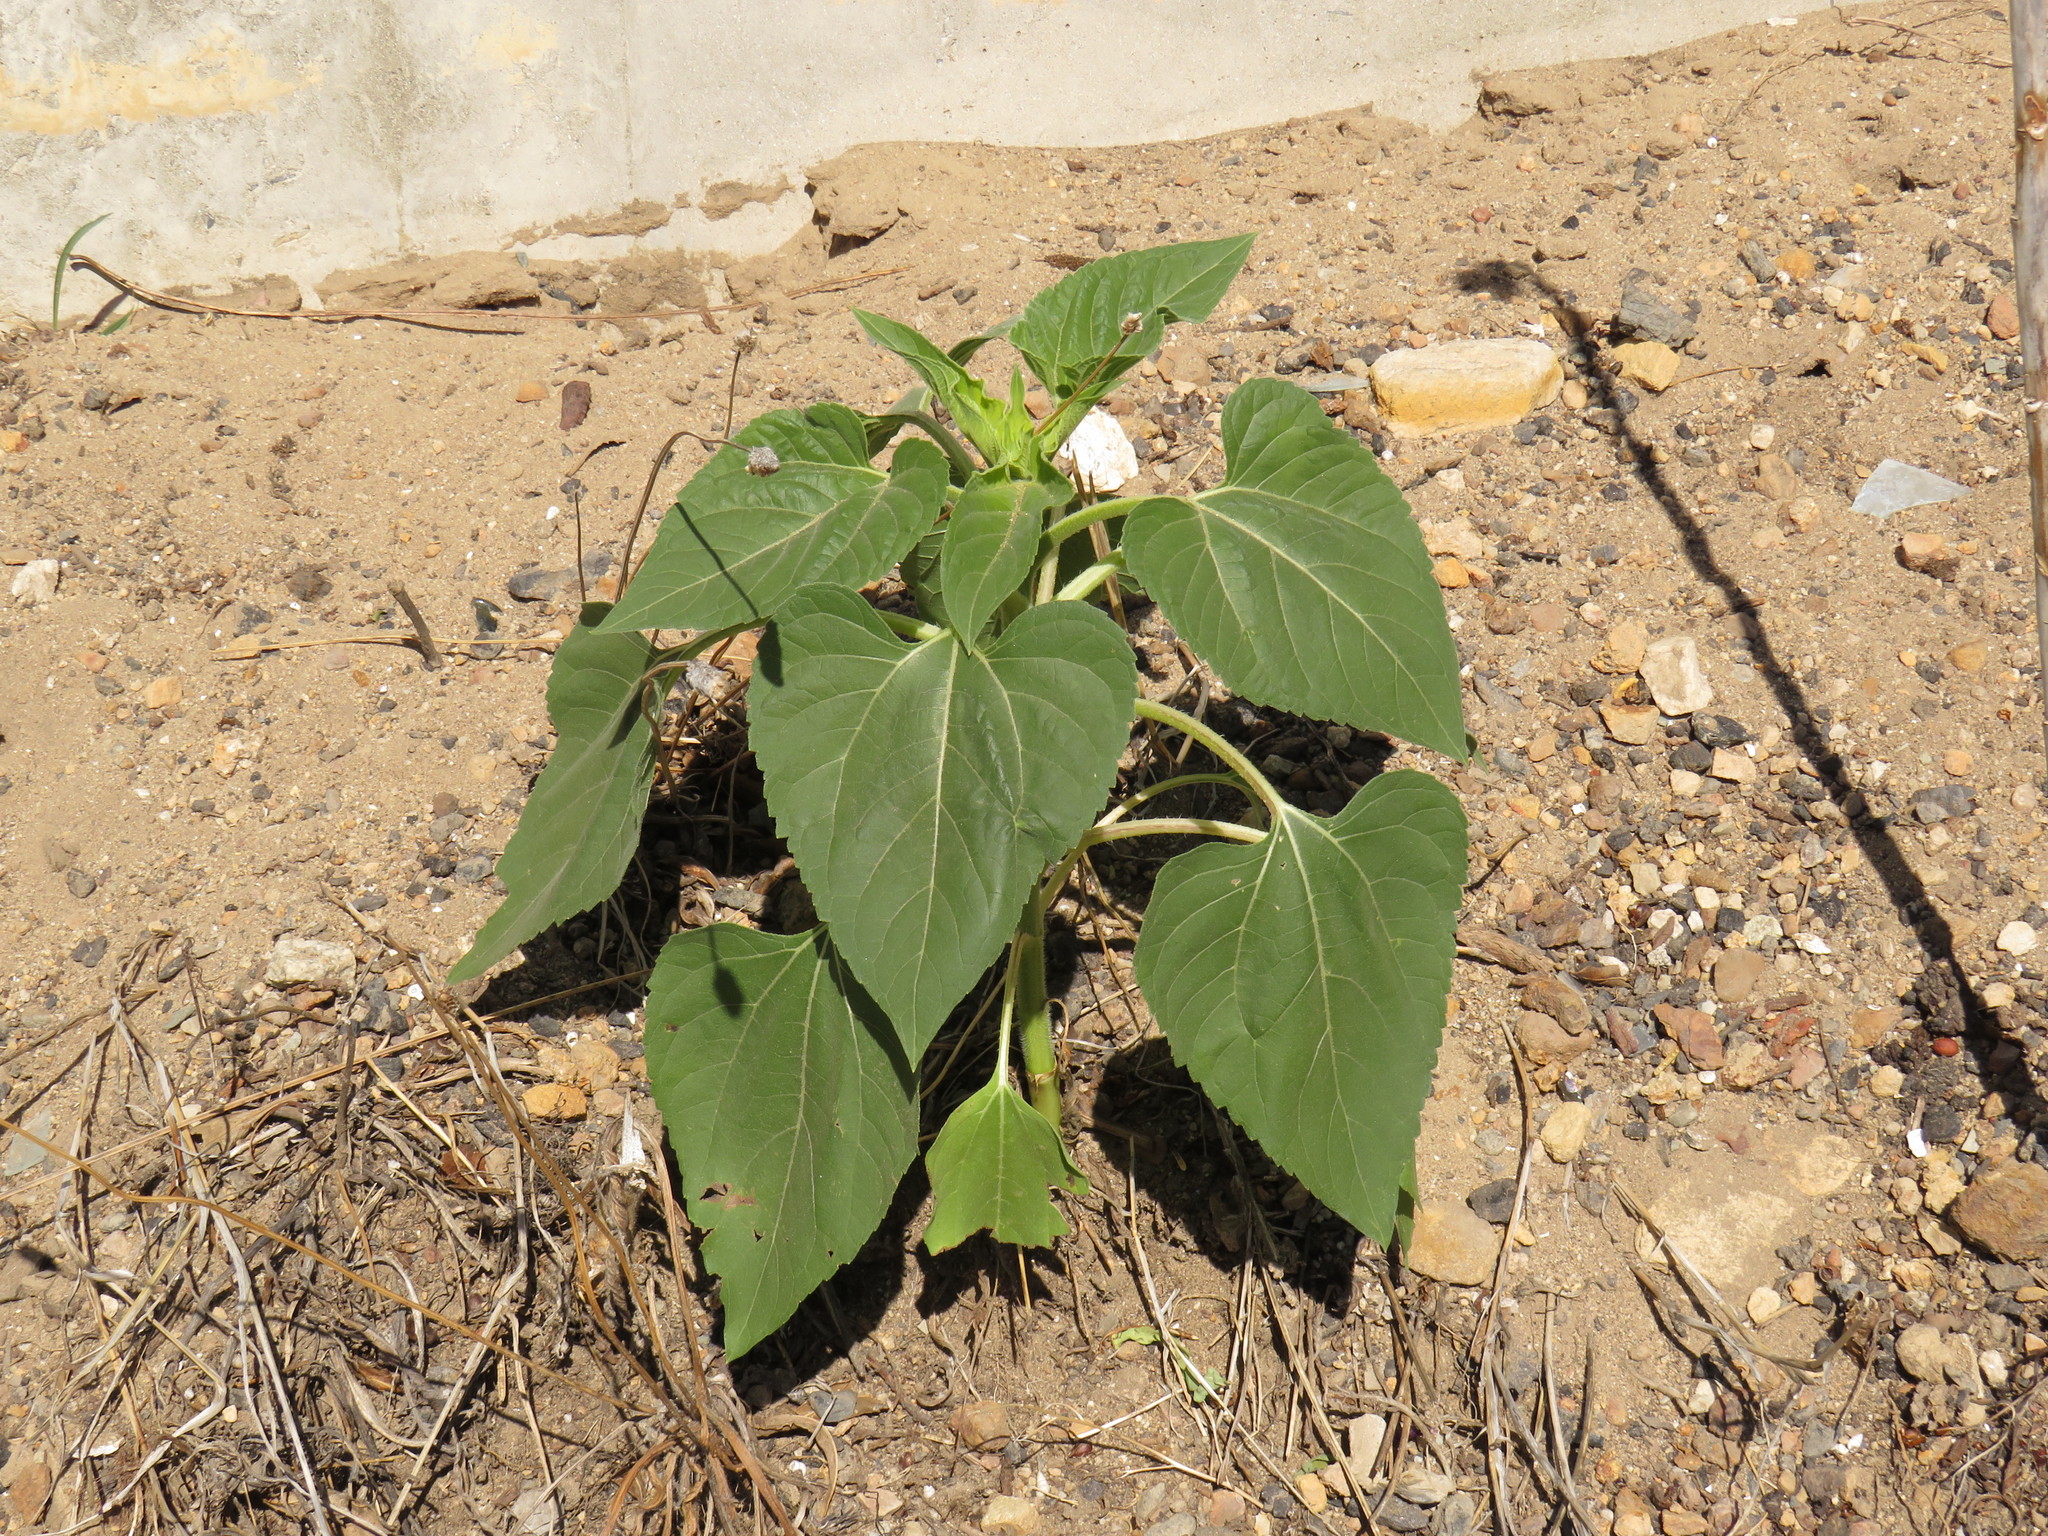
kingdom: Plantae
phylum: Tracheophyta
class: Magnoliopsida
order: Asterales
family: Asteraceae
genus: Helianthus
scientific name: Helianthus annuus
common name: Sunflower
